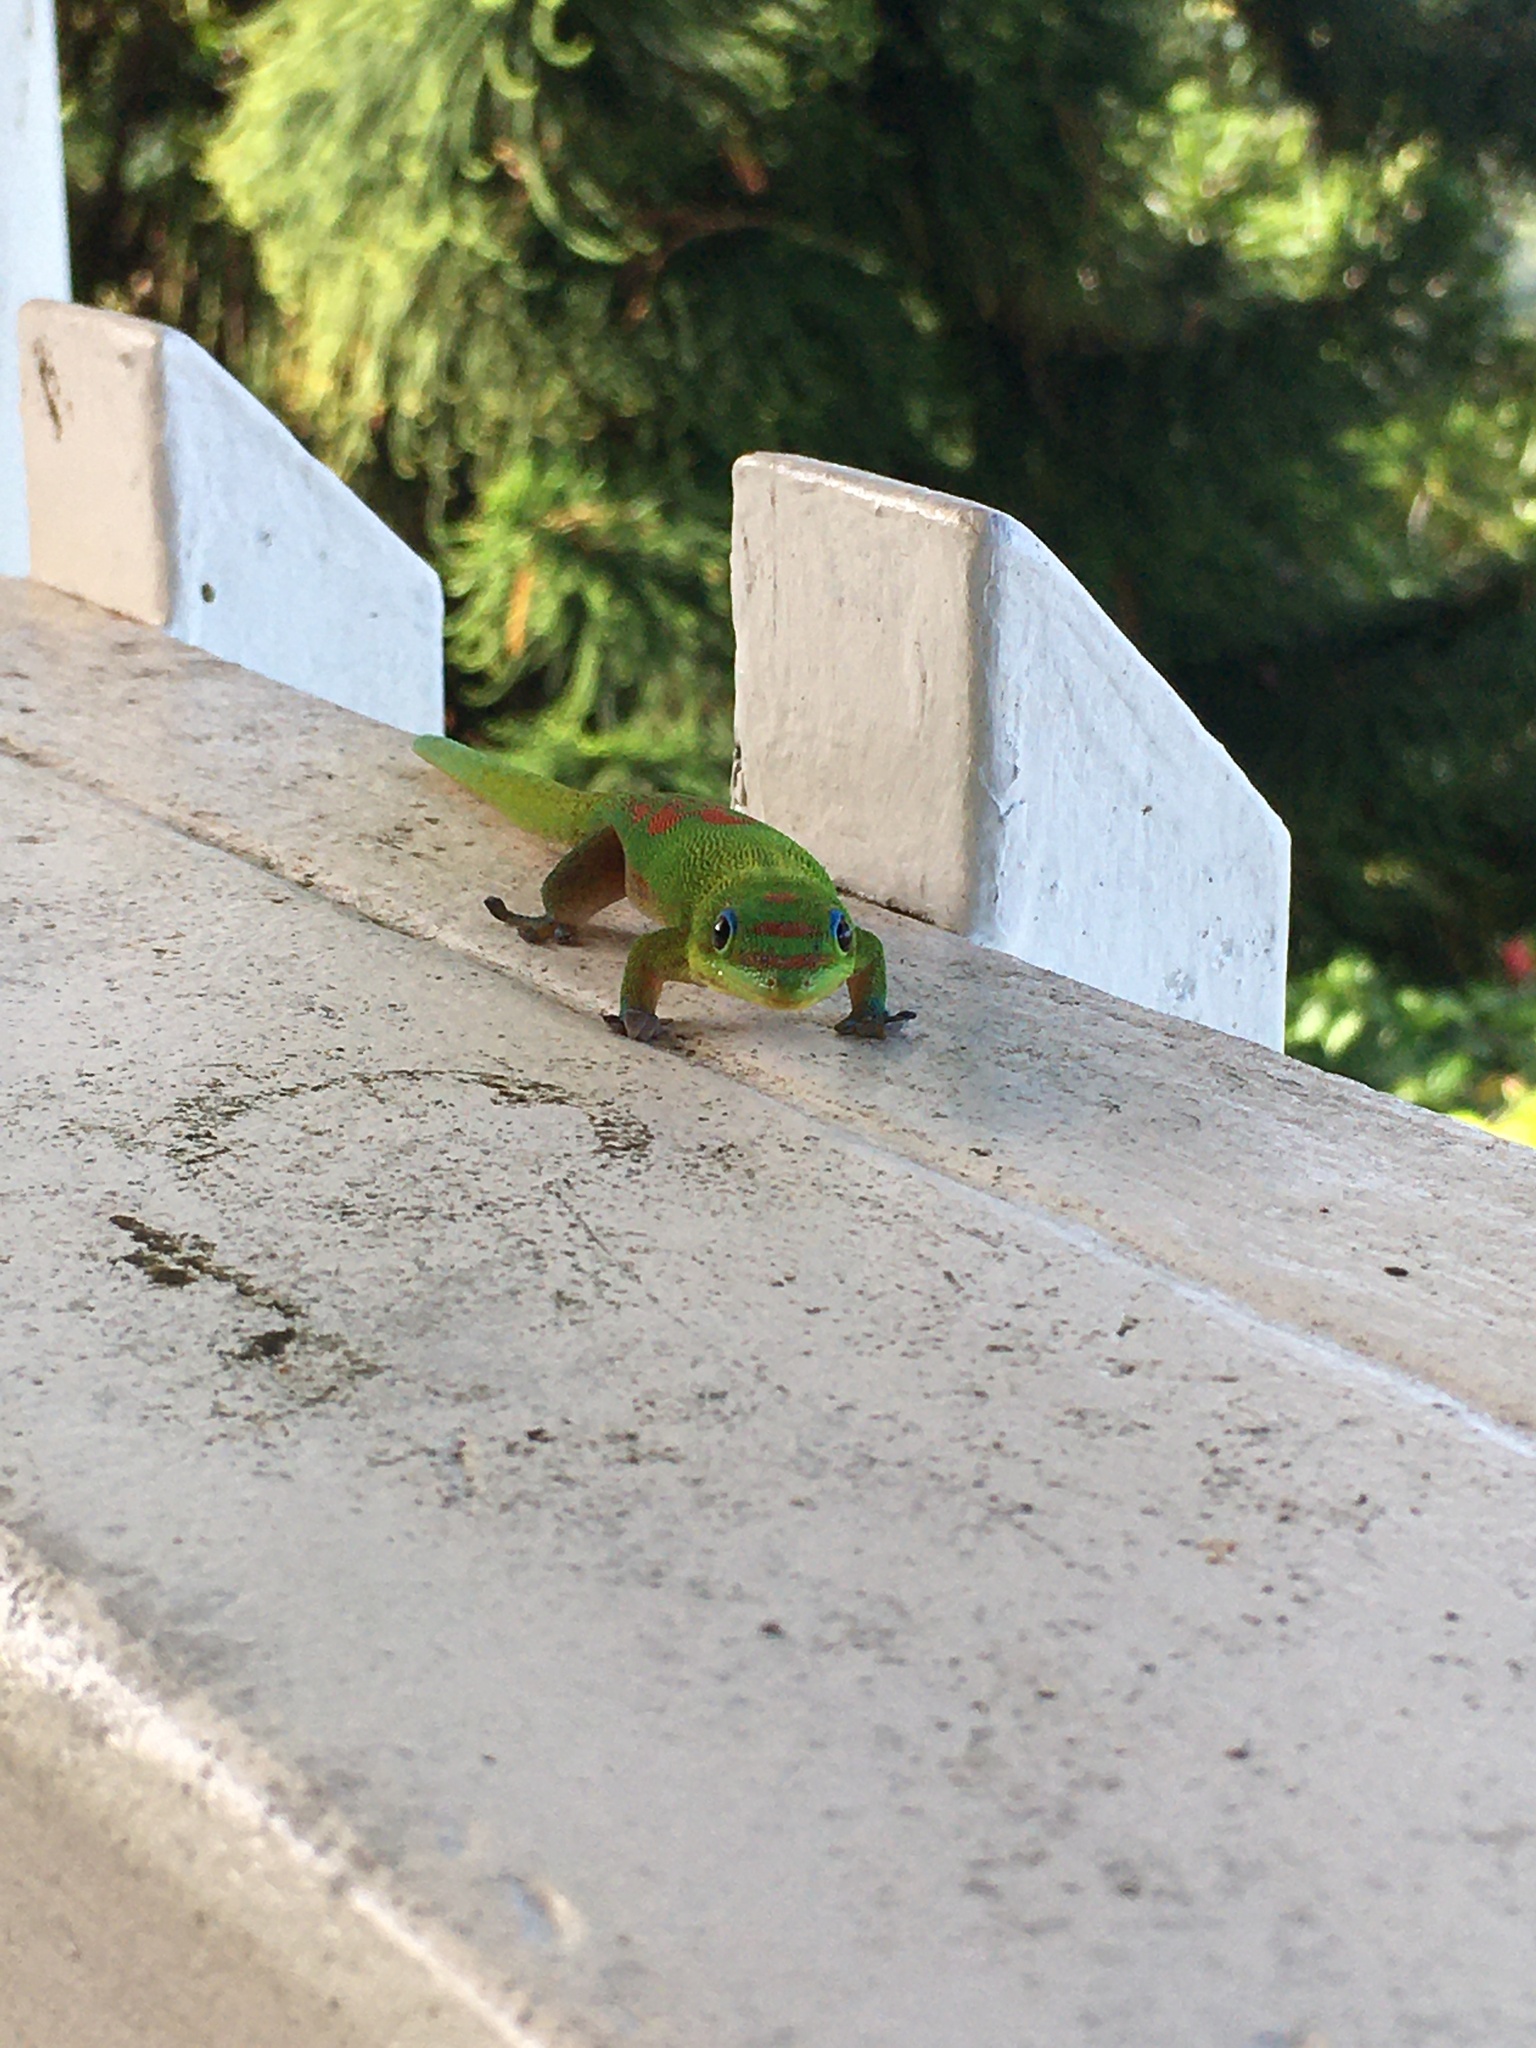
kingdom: Animalia
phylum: Chordata
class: Squamata
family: Gekkonidae
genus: Phelsuma
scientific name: Phelsuma laticauda
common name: Gold dust day gecko
